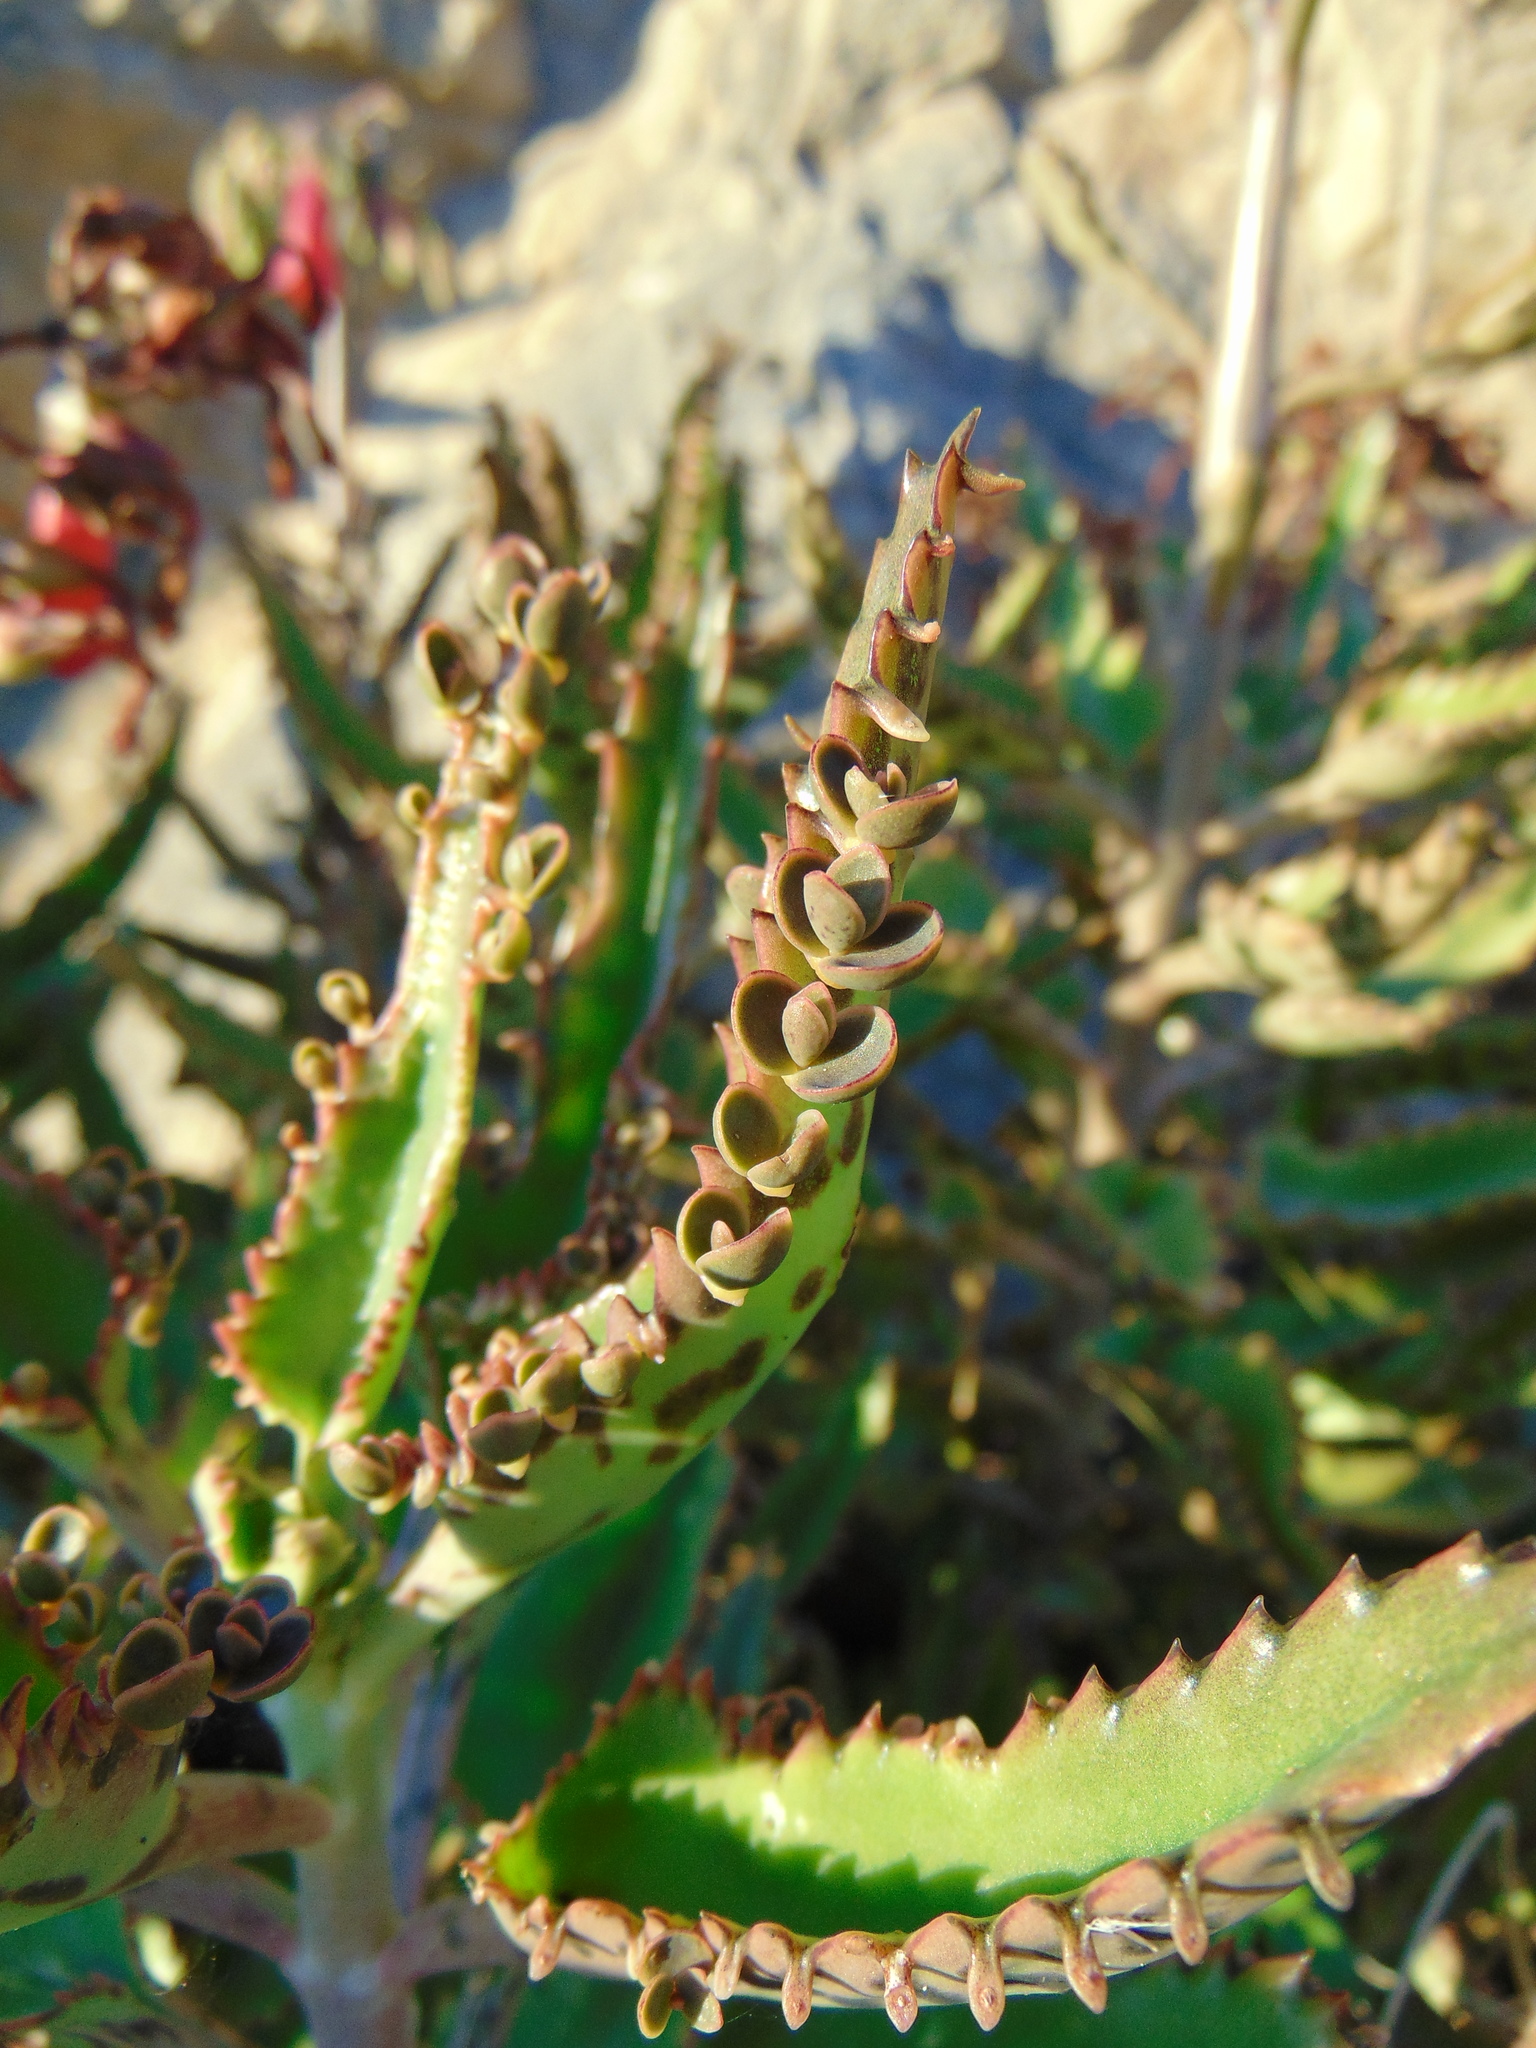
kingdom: Plantae
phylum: Tracheophyta
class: Magnoliopsida
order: Saxifragales
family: Crassulaceae
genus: Kalanchoe
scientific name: Kalanchoe houghtonii
